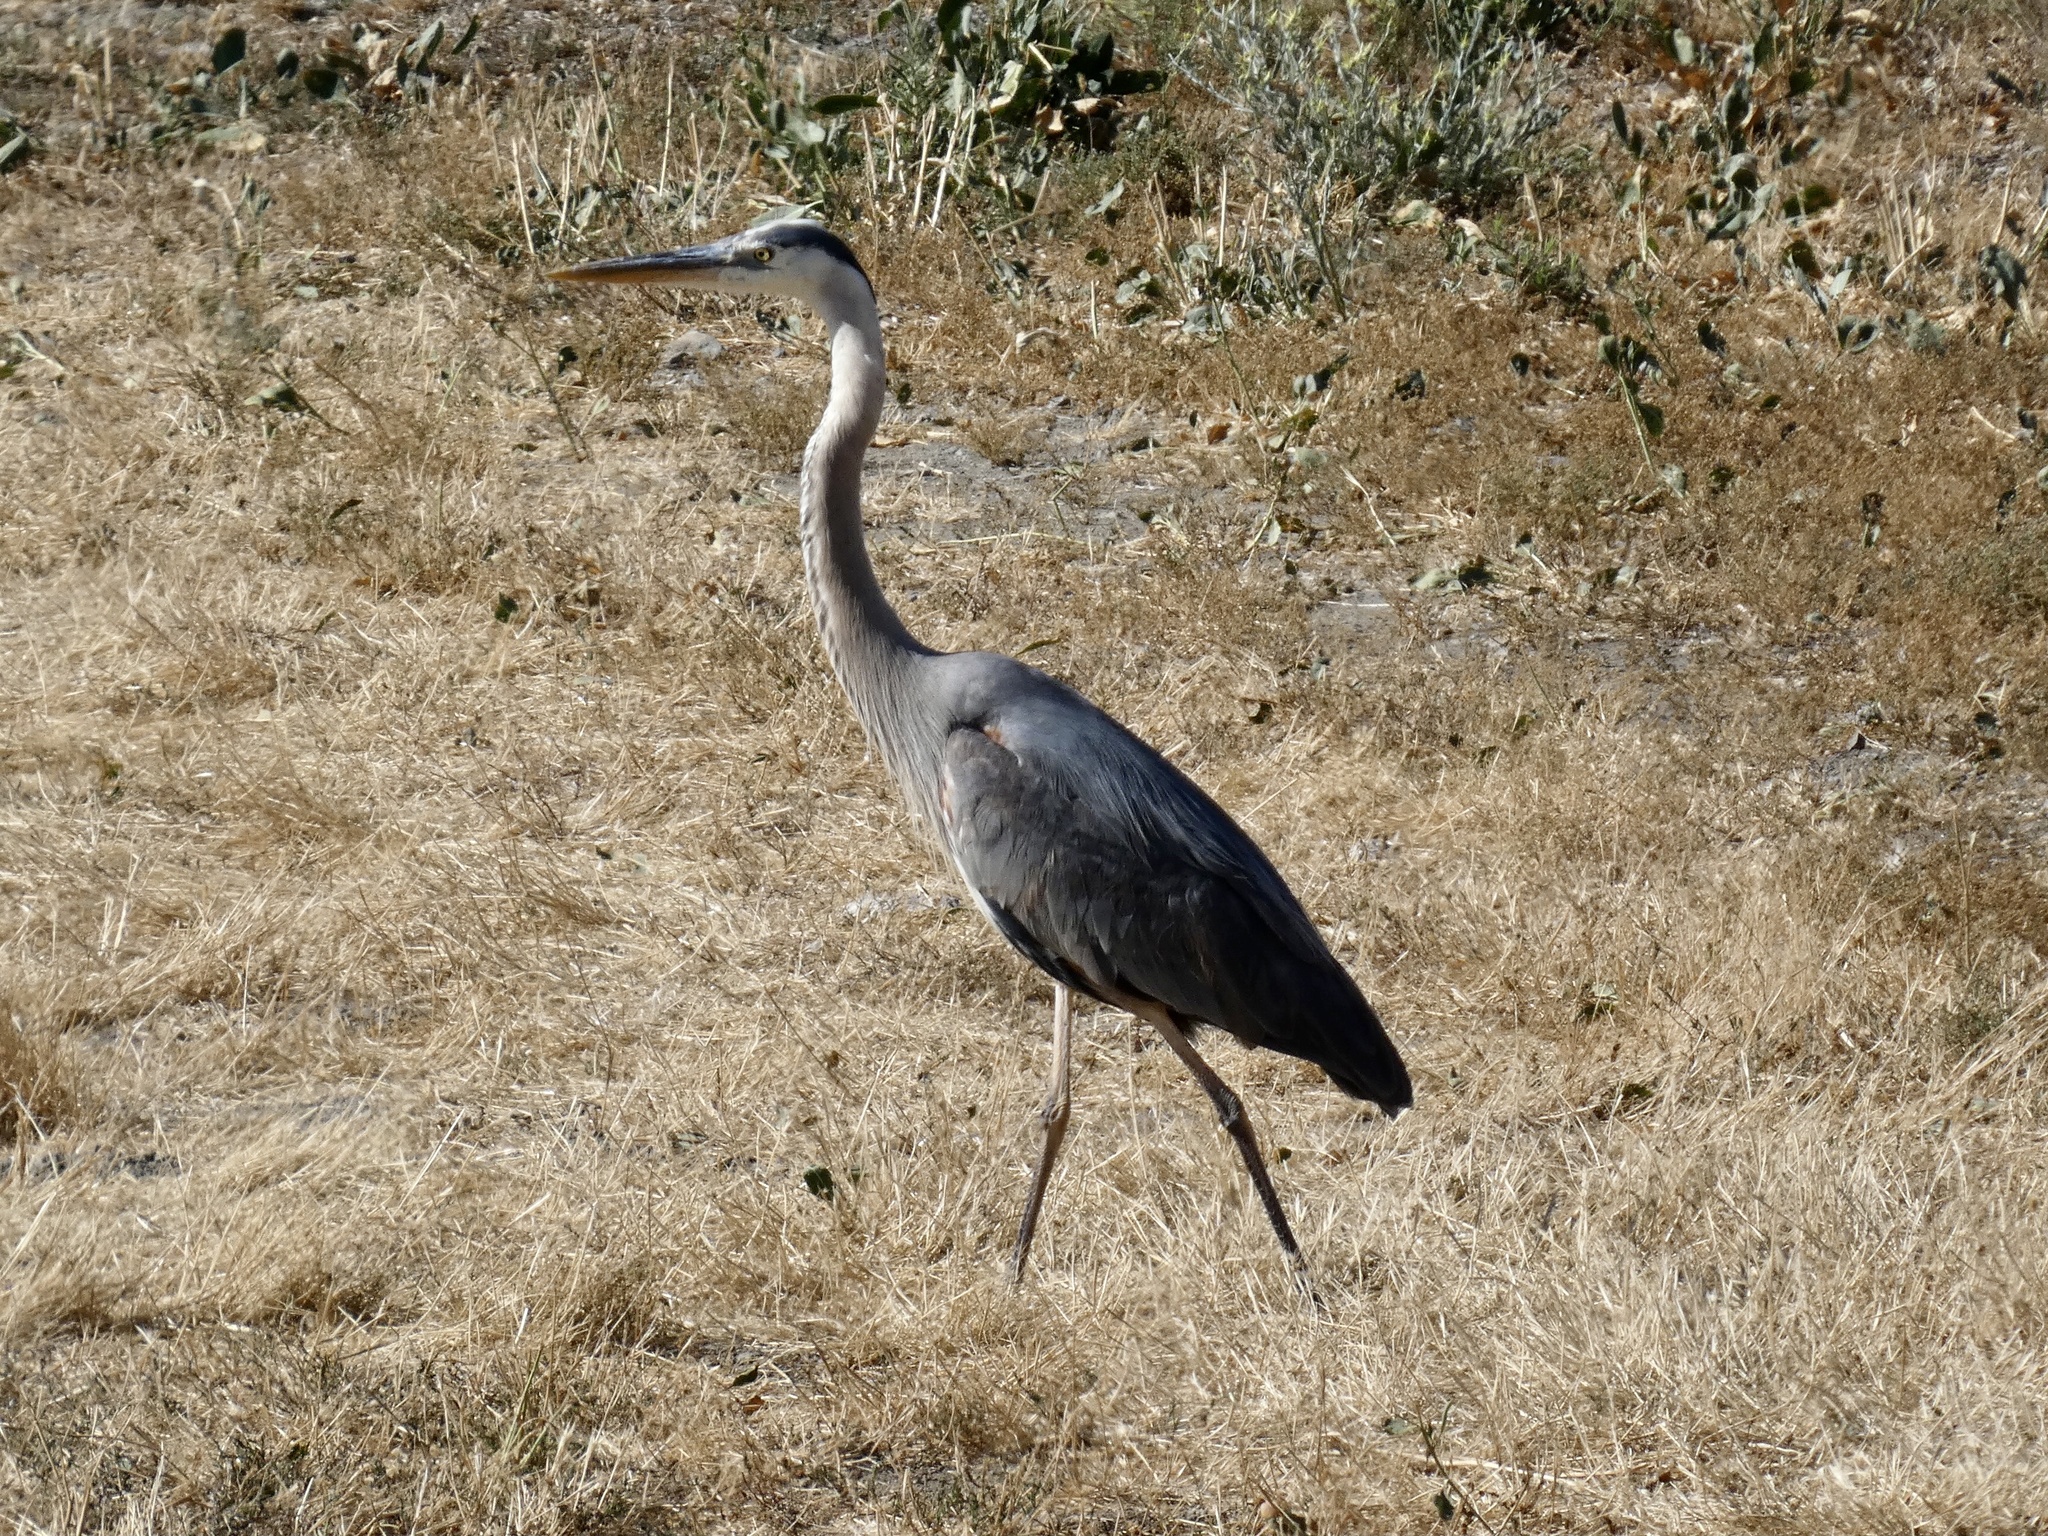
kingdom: Animalia
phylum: Chordata
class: Aves
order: Pelecaniformes
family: Ardeidae
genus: Ardea
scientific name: Ardea herodias
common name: Great blue heron
